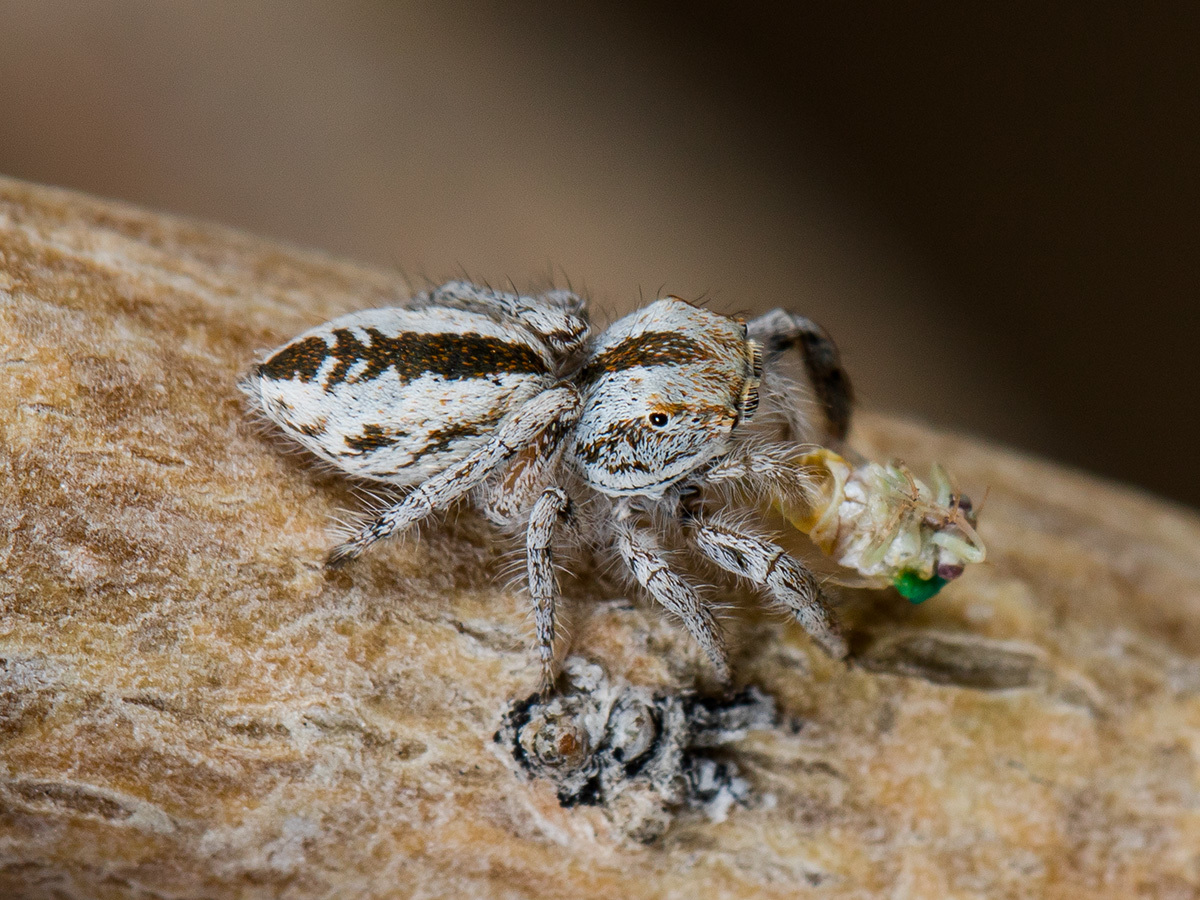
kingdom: Animalia
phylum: Arthropoda
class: Arachnida
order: Araneae
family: Salticidae
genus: Marusyllus
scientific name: Marusyllus uzbekistanicus
